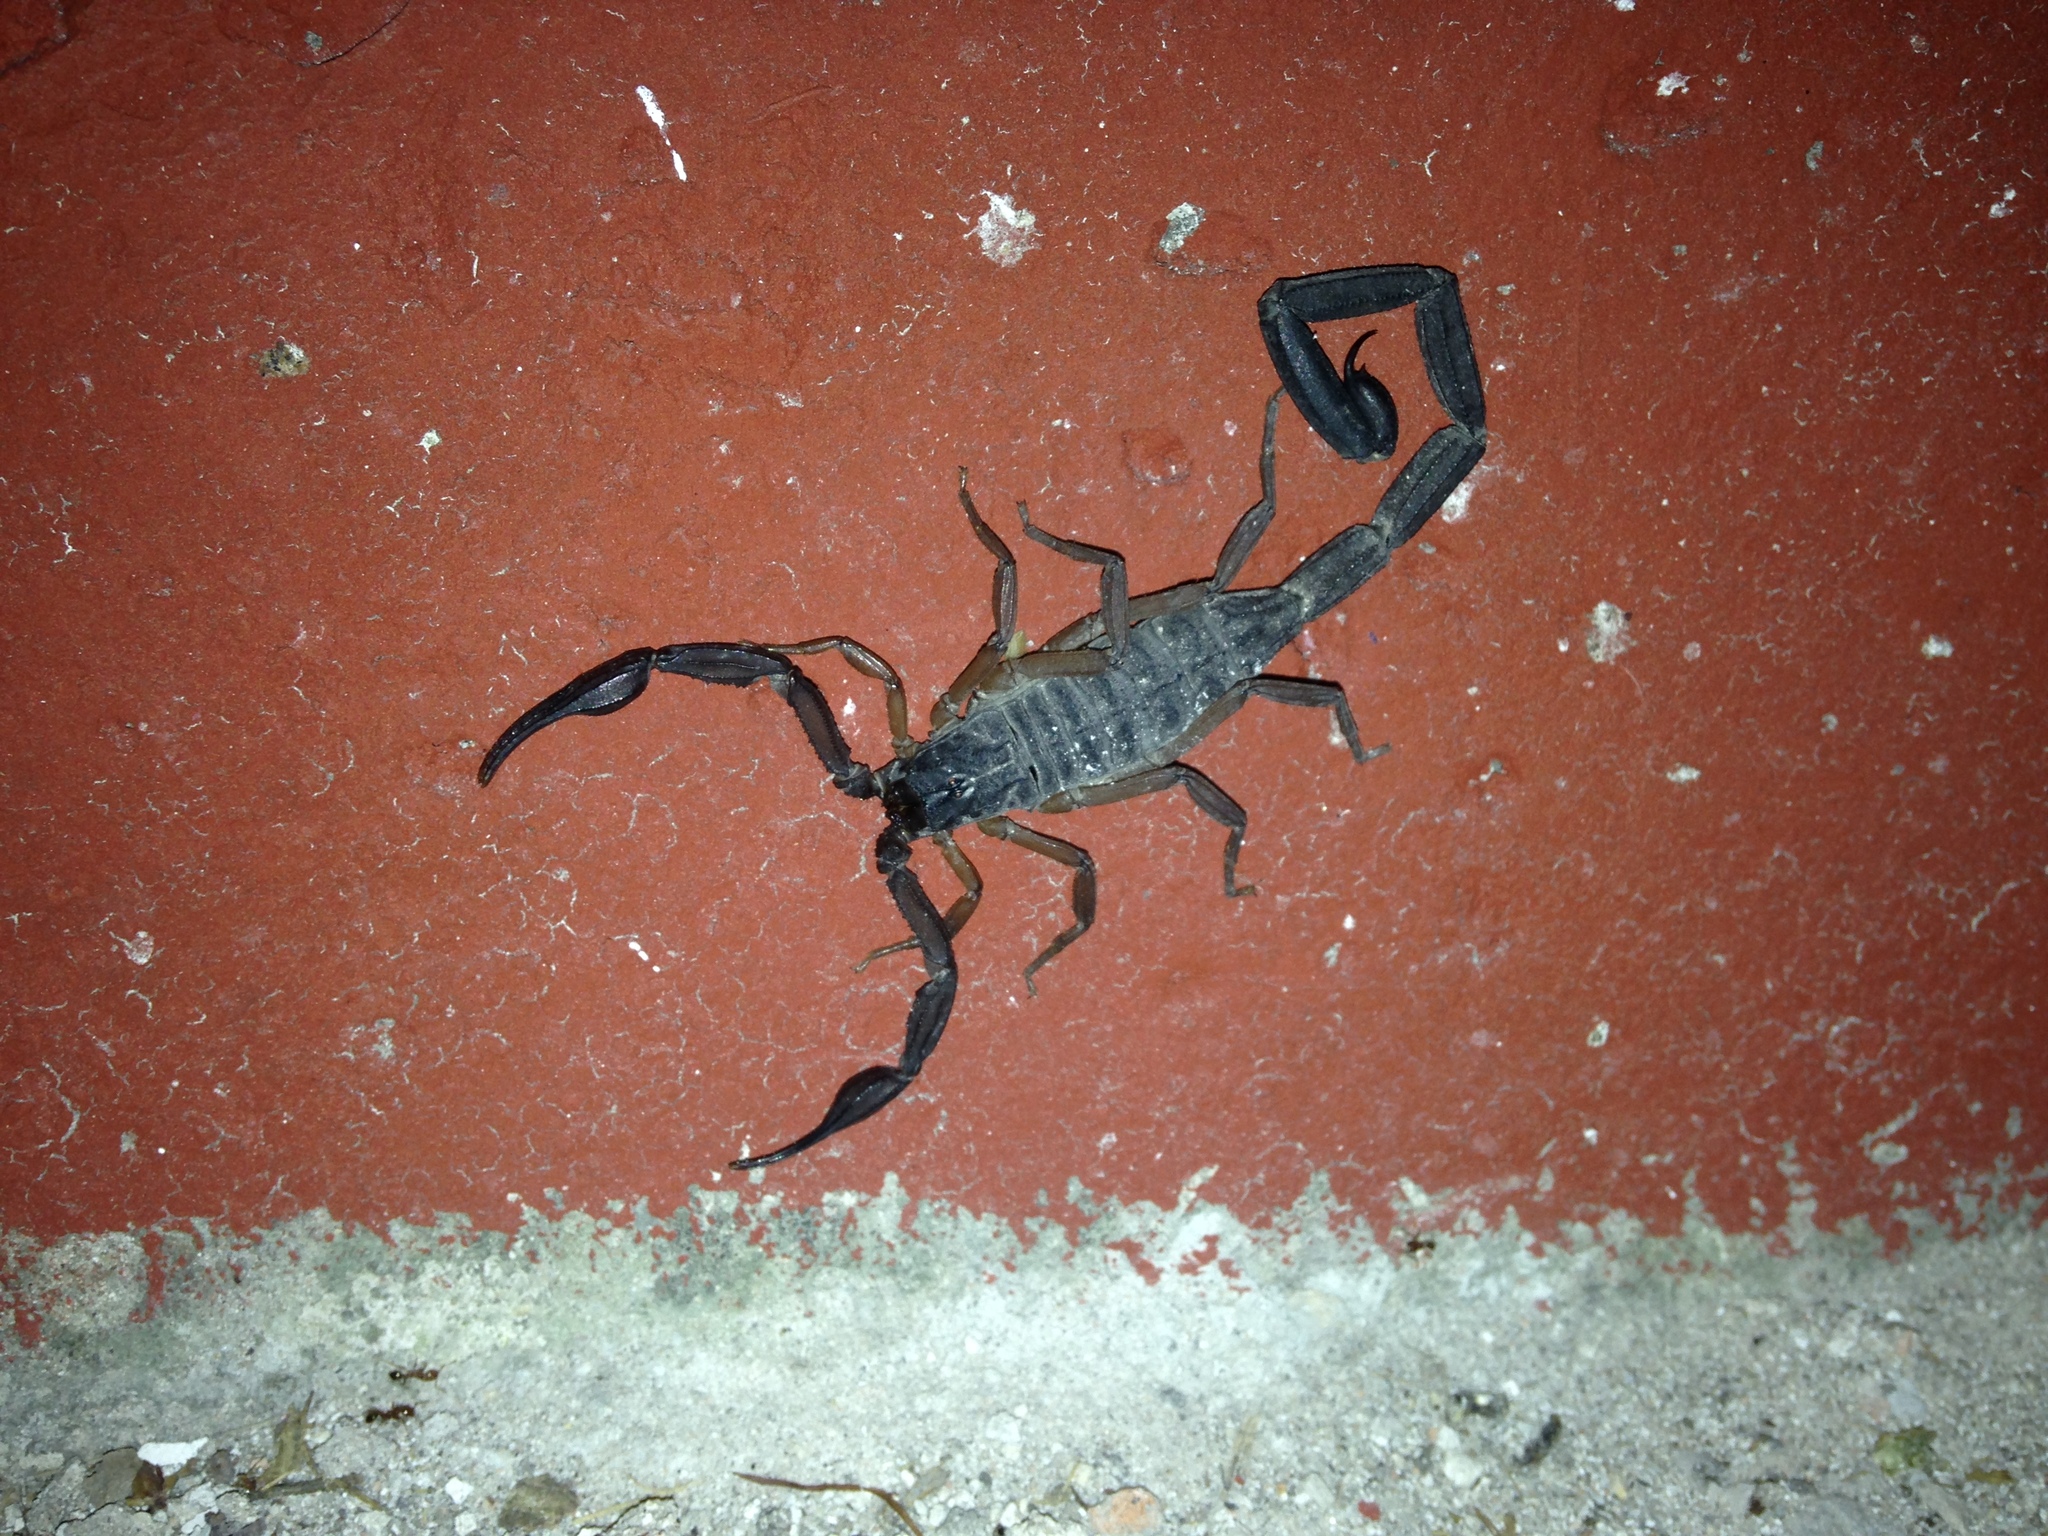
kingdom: Animalia
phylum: Arthropoda
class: Arachnida
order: Scorpiones
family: Buthidae
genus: Centruroides
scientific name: Centruroides gracilis
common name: Scorpions
